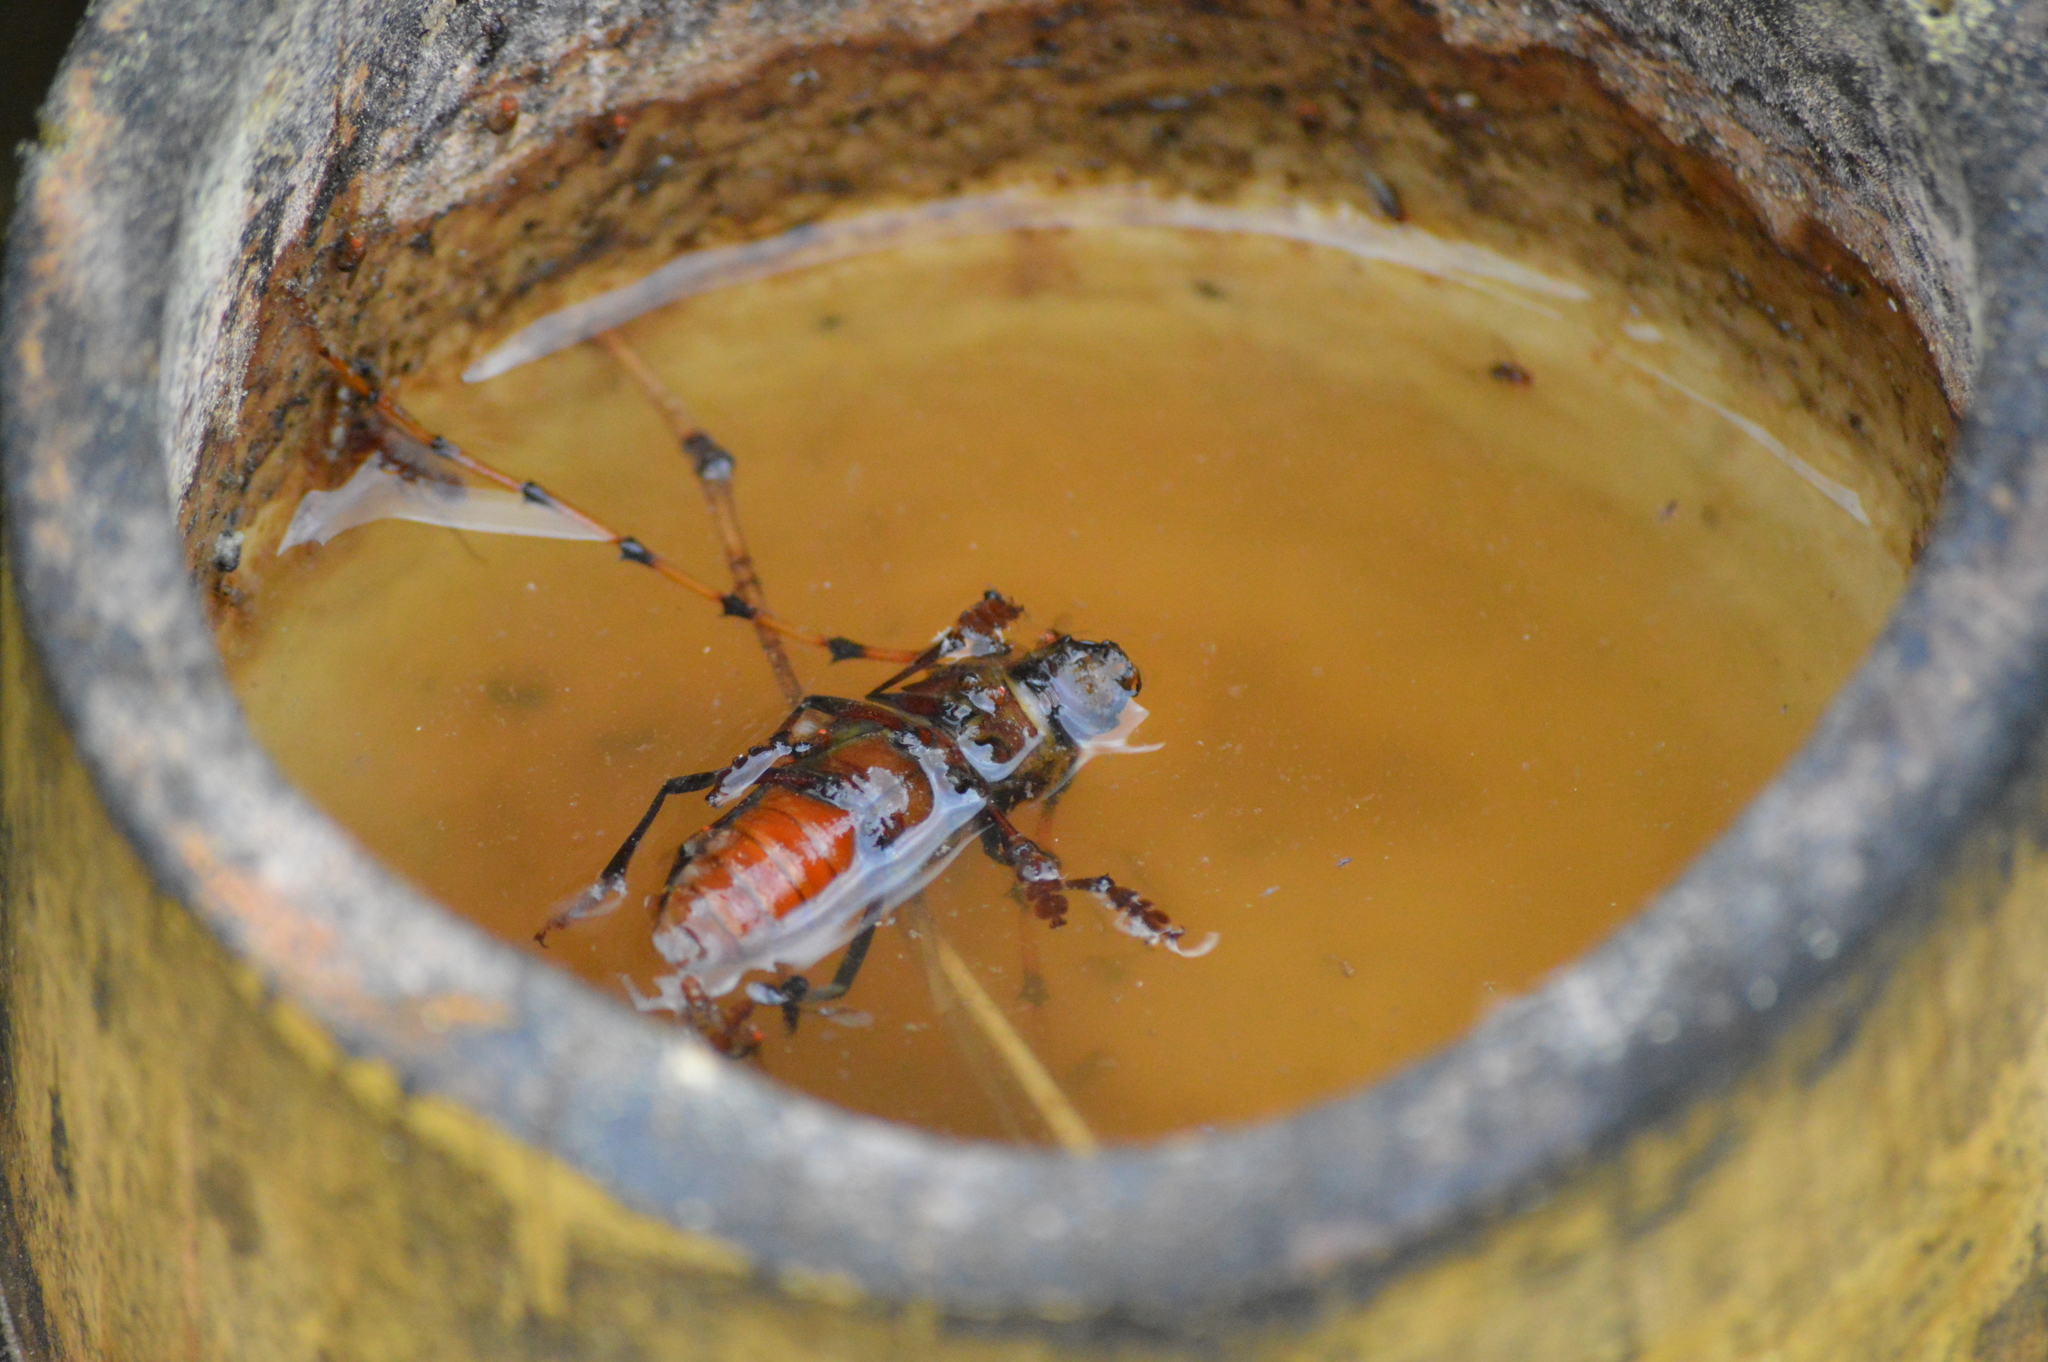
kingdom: Animalia
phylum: Arthropoda
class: Insecta
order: Coleoptera
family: Cerambycidae
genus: Dorcacerus
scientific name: Dorcacerus barbatus
